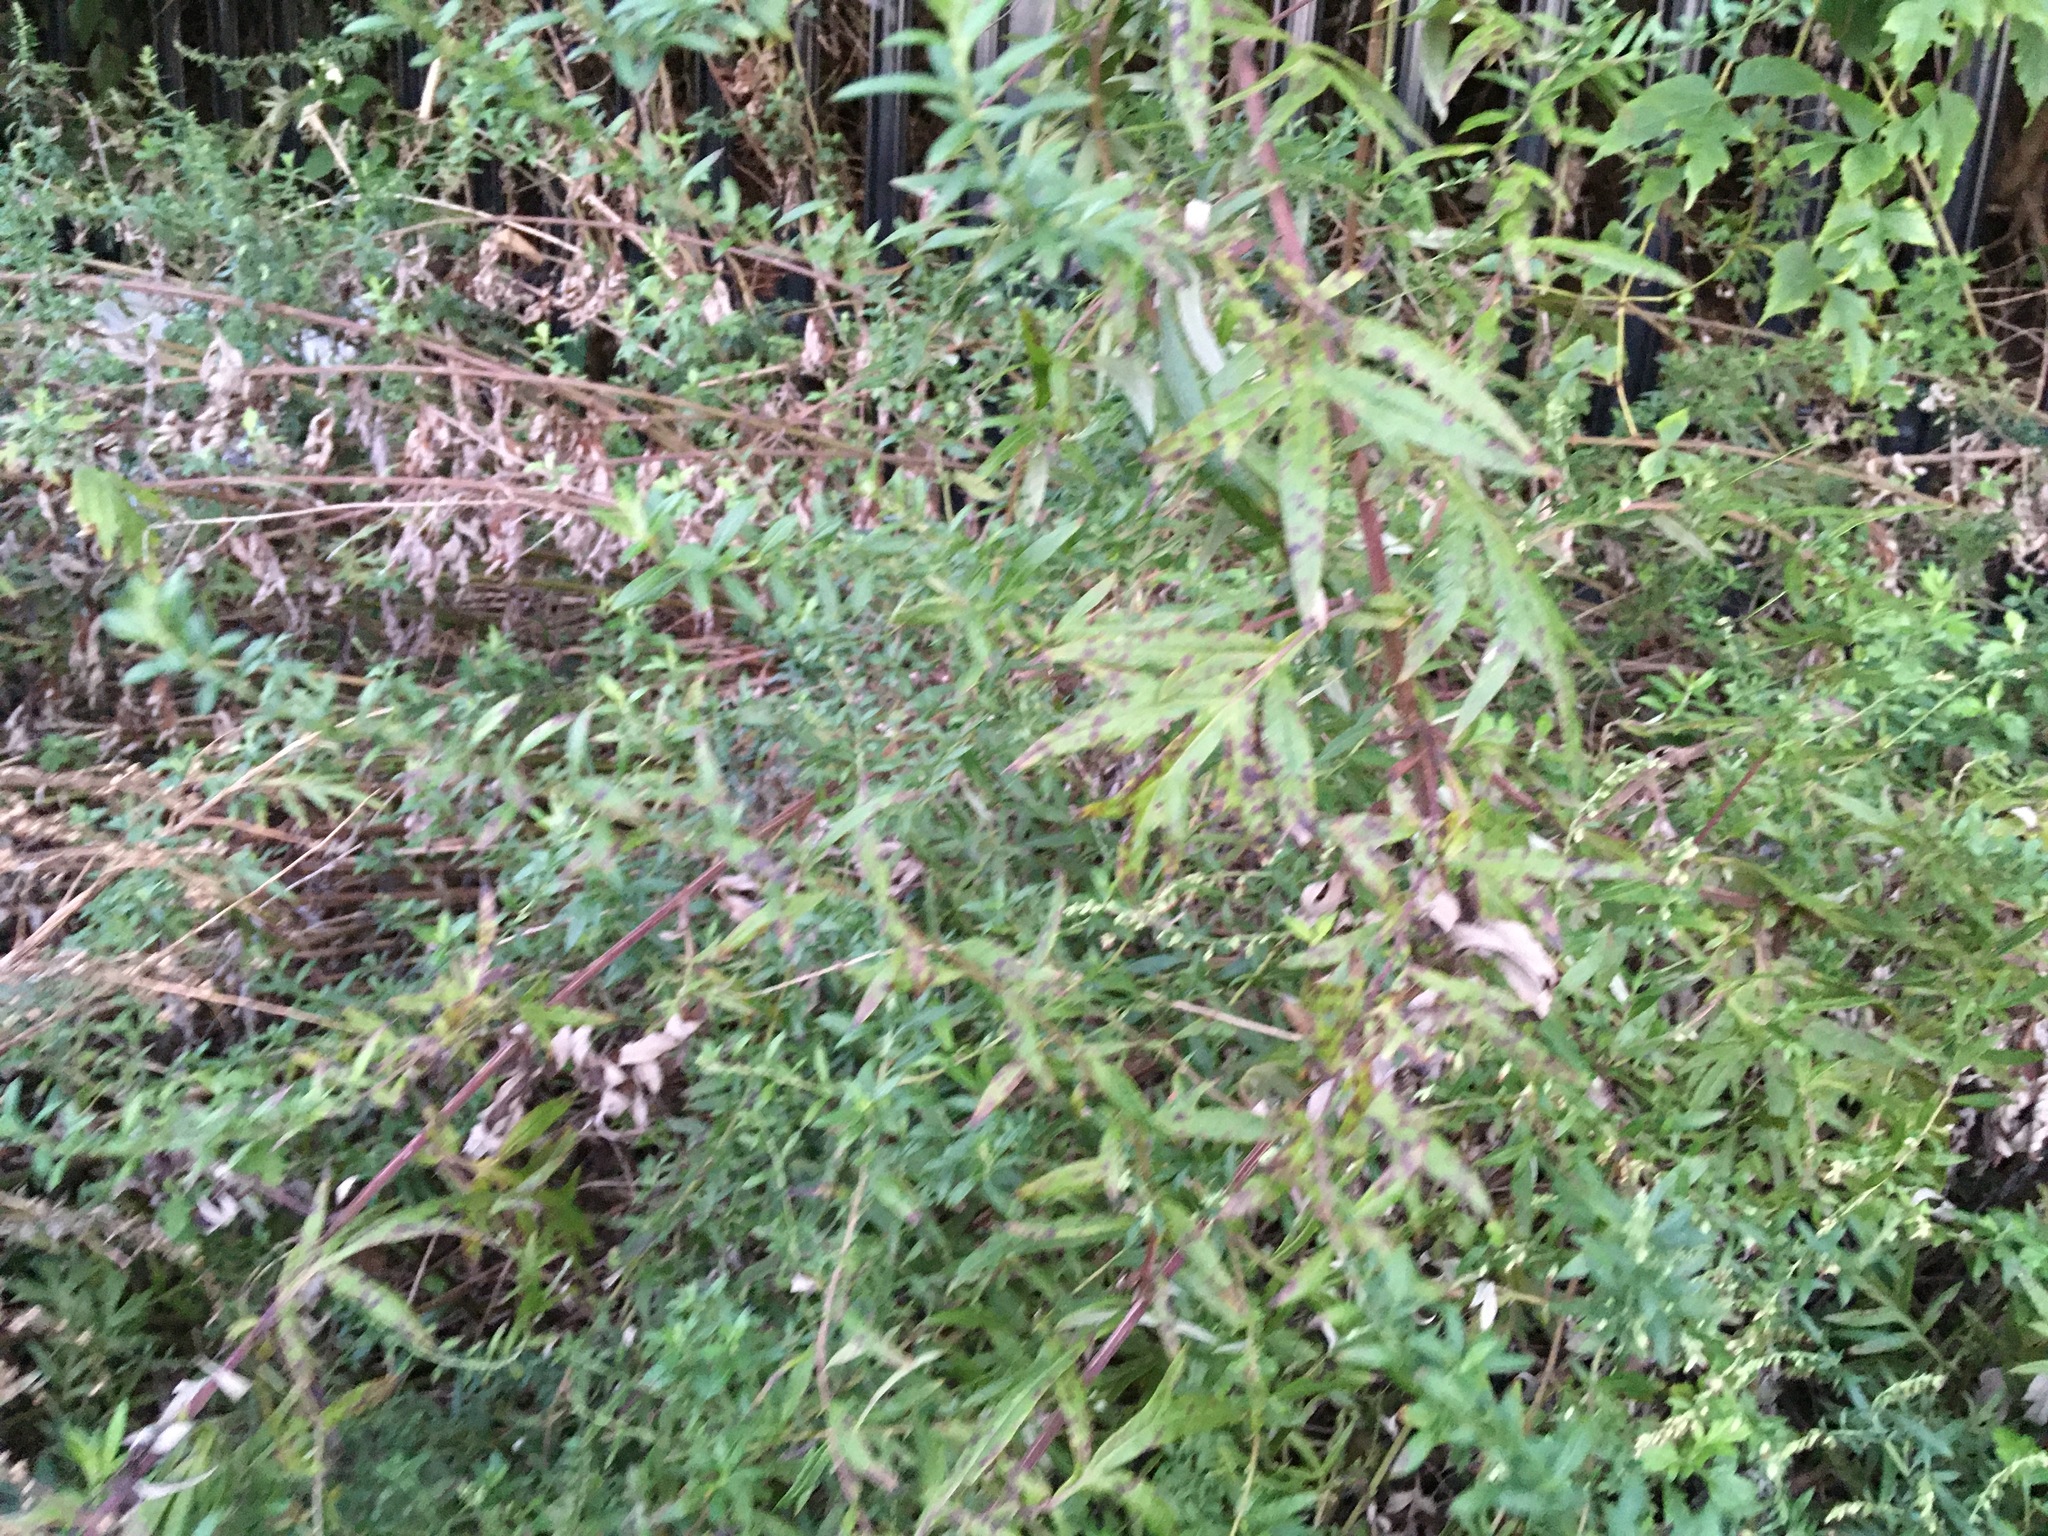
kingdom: Plantae
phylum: Tracheophyta
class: Magnoliopsida
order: Asterales
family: Asteraceae
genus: Artemisia
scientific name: Artemisia vulgaris
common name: Mugwort
